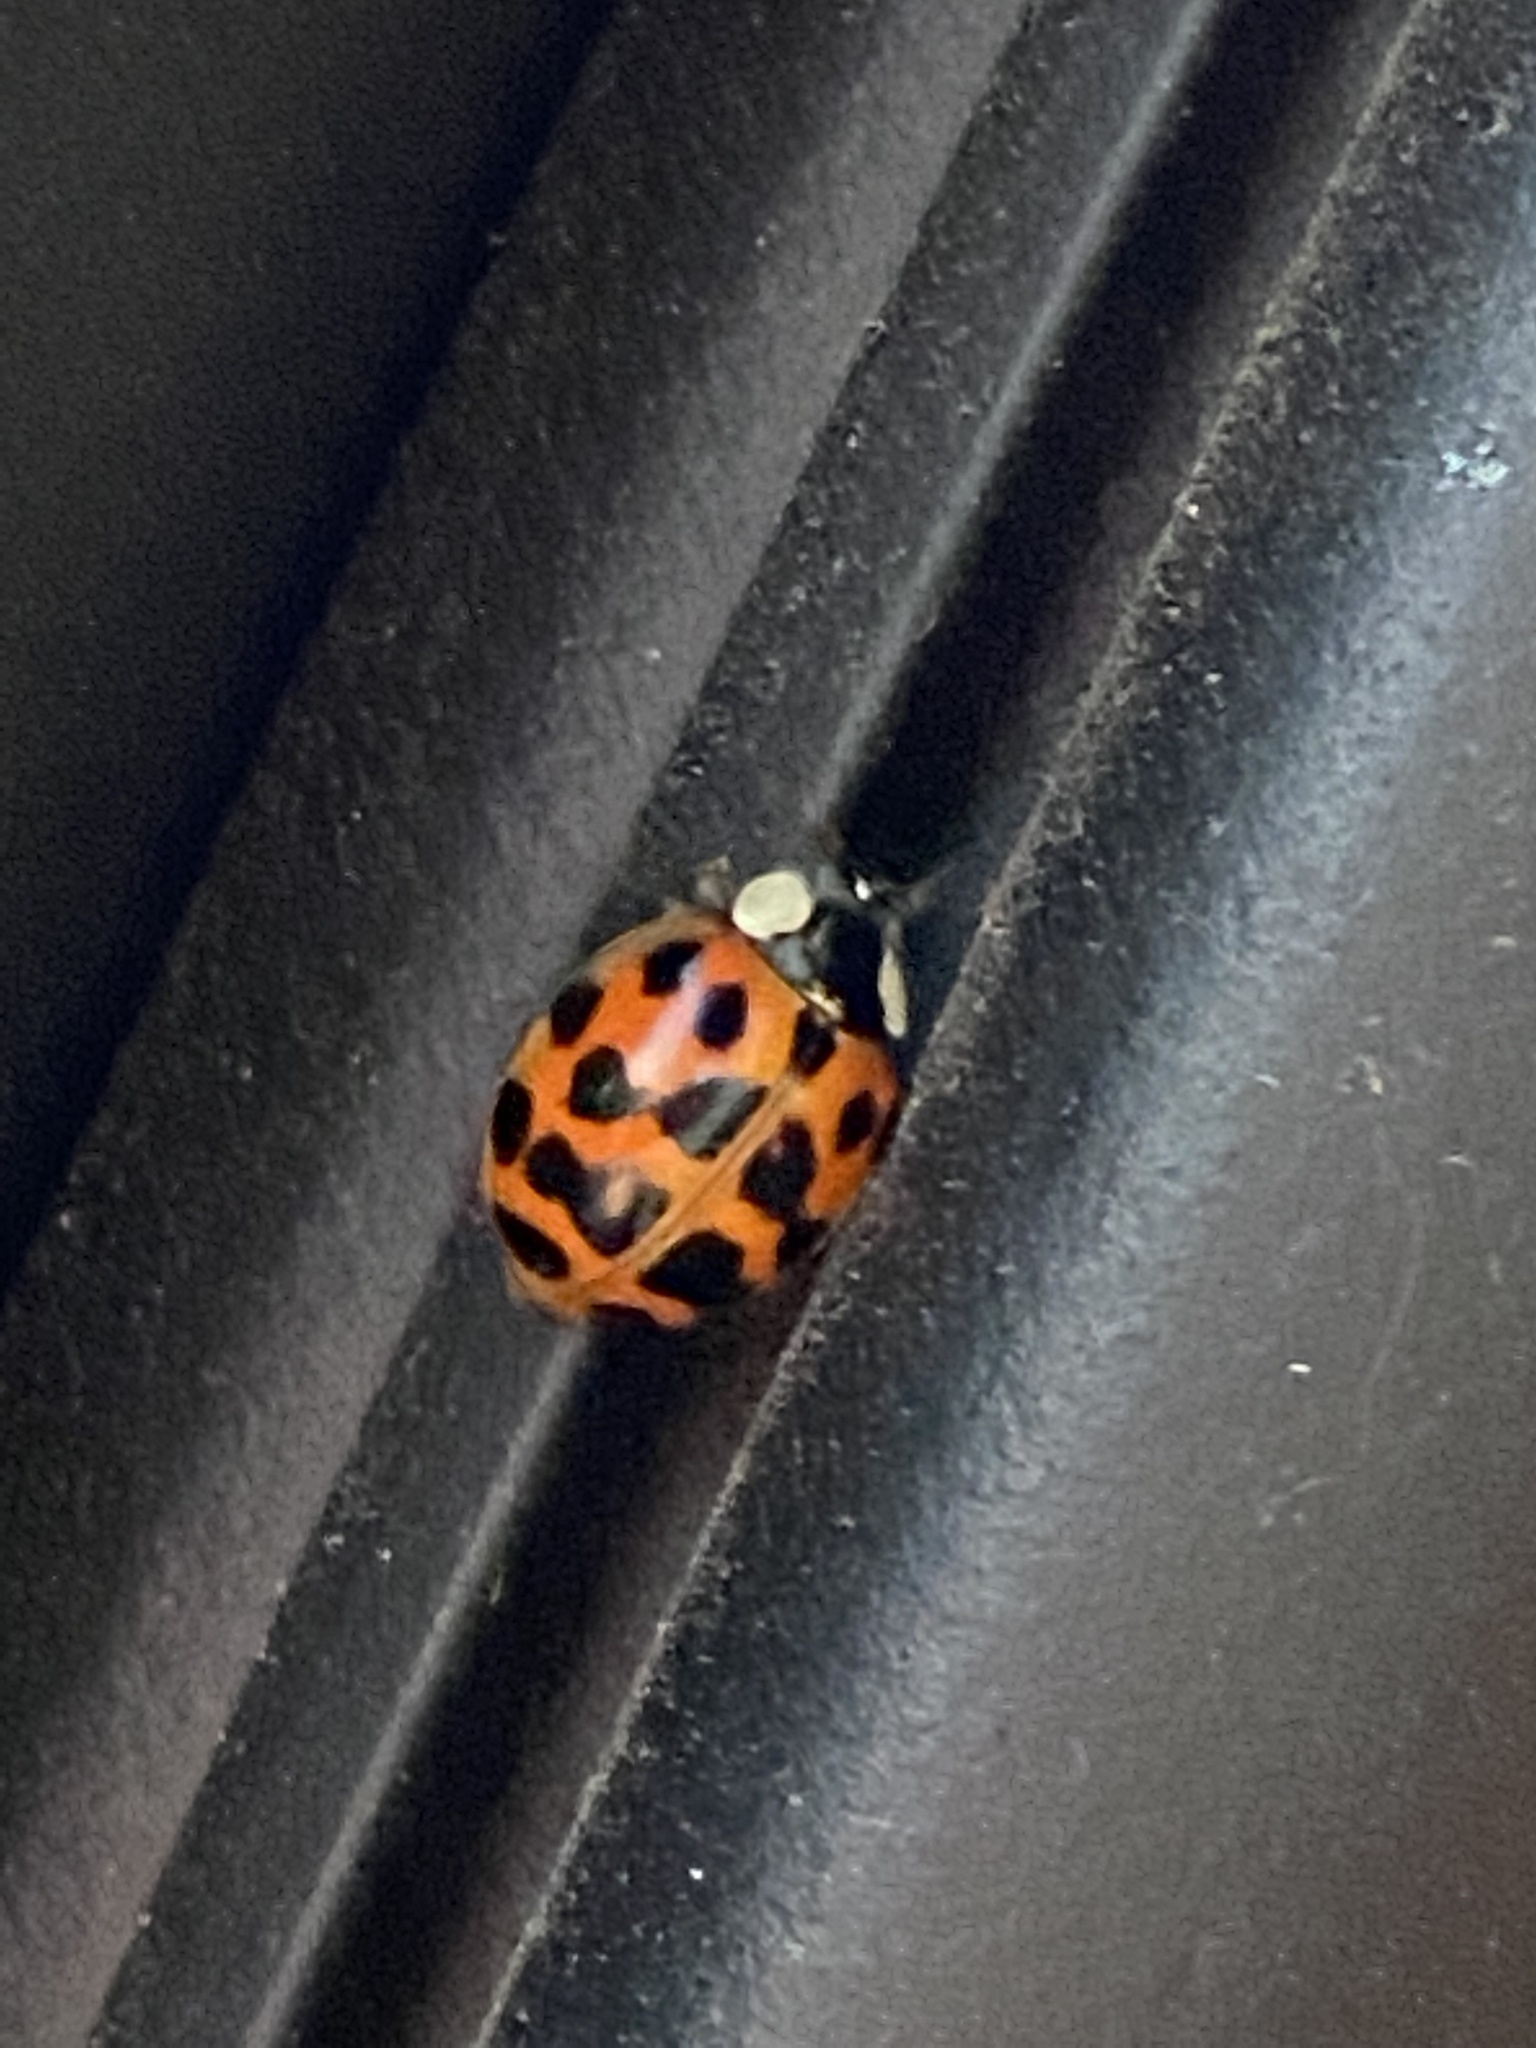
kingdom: Animalia
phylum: Arthropoda
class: Insecta
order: Coleoptera
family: Coccinellidae
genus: Harmonia
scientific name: Harmonia axyridis
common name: Harlequin ladybird
